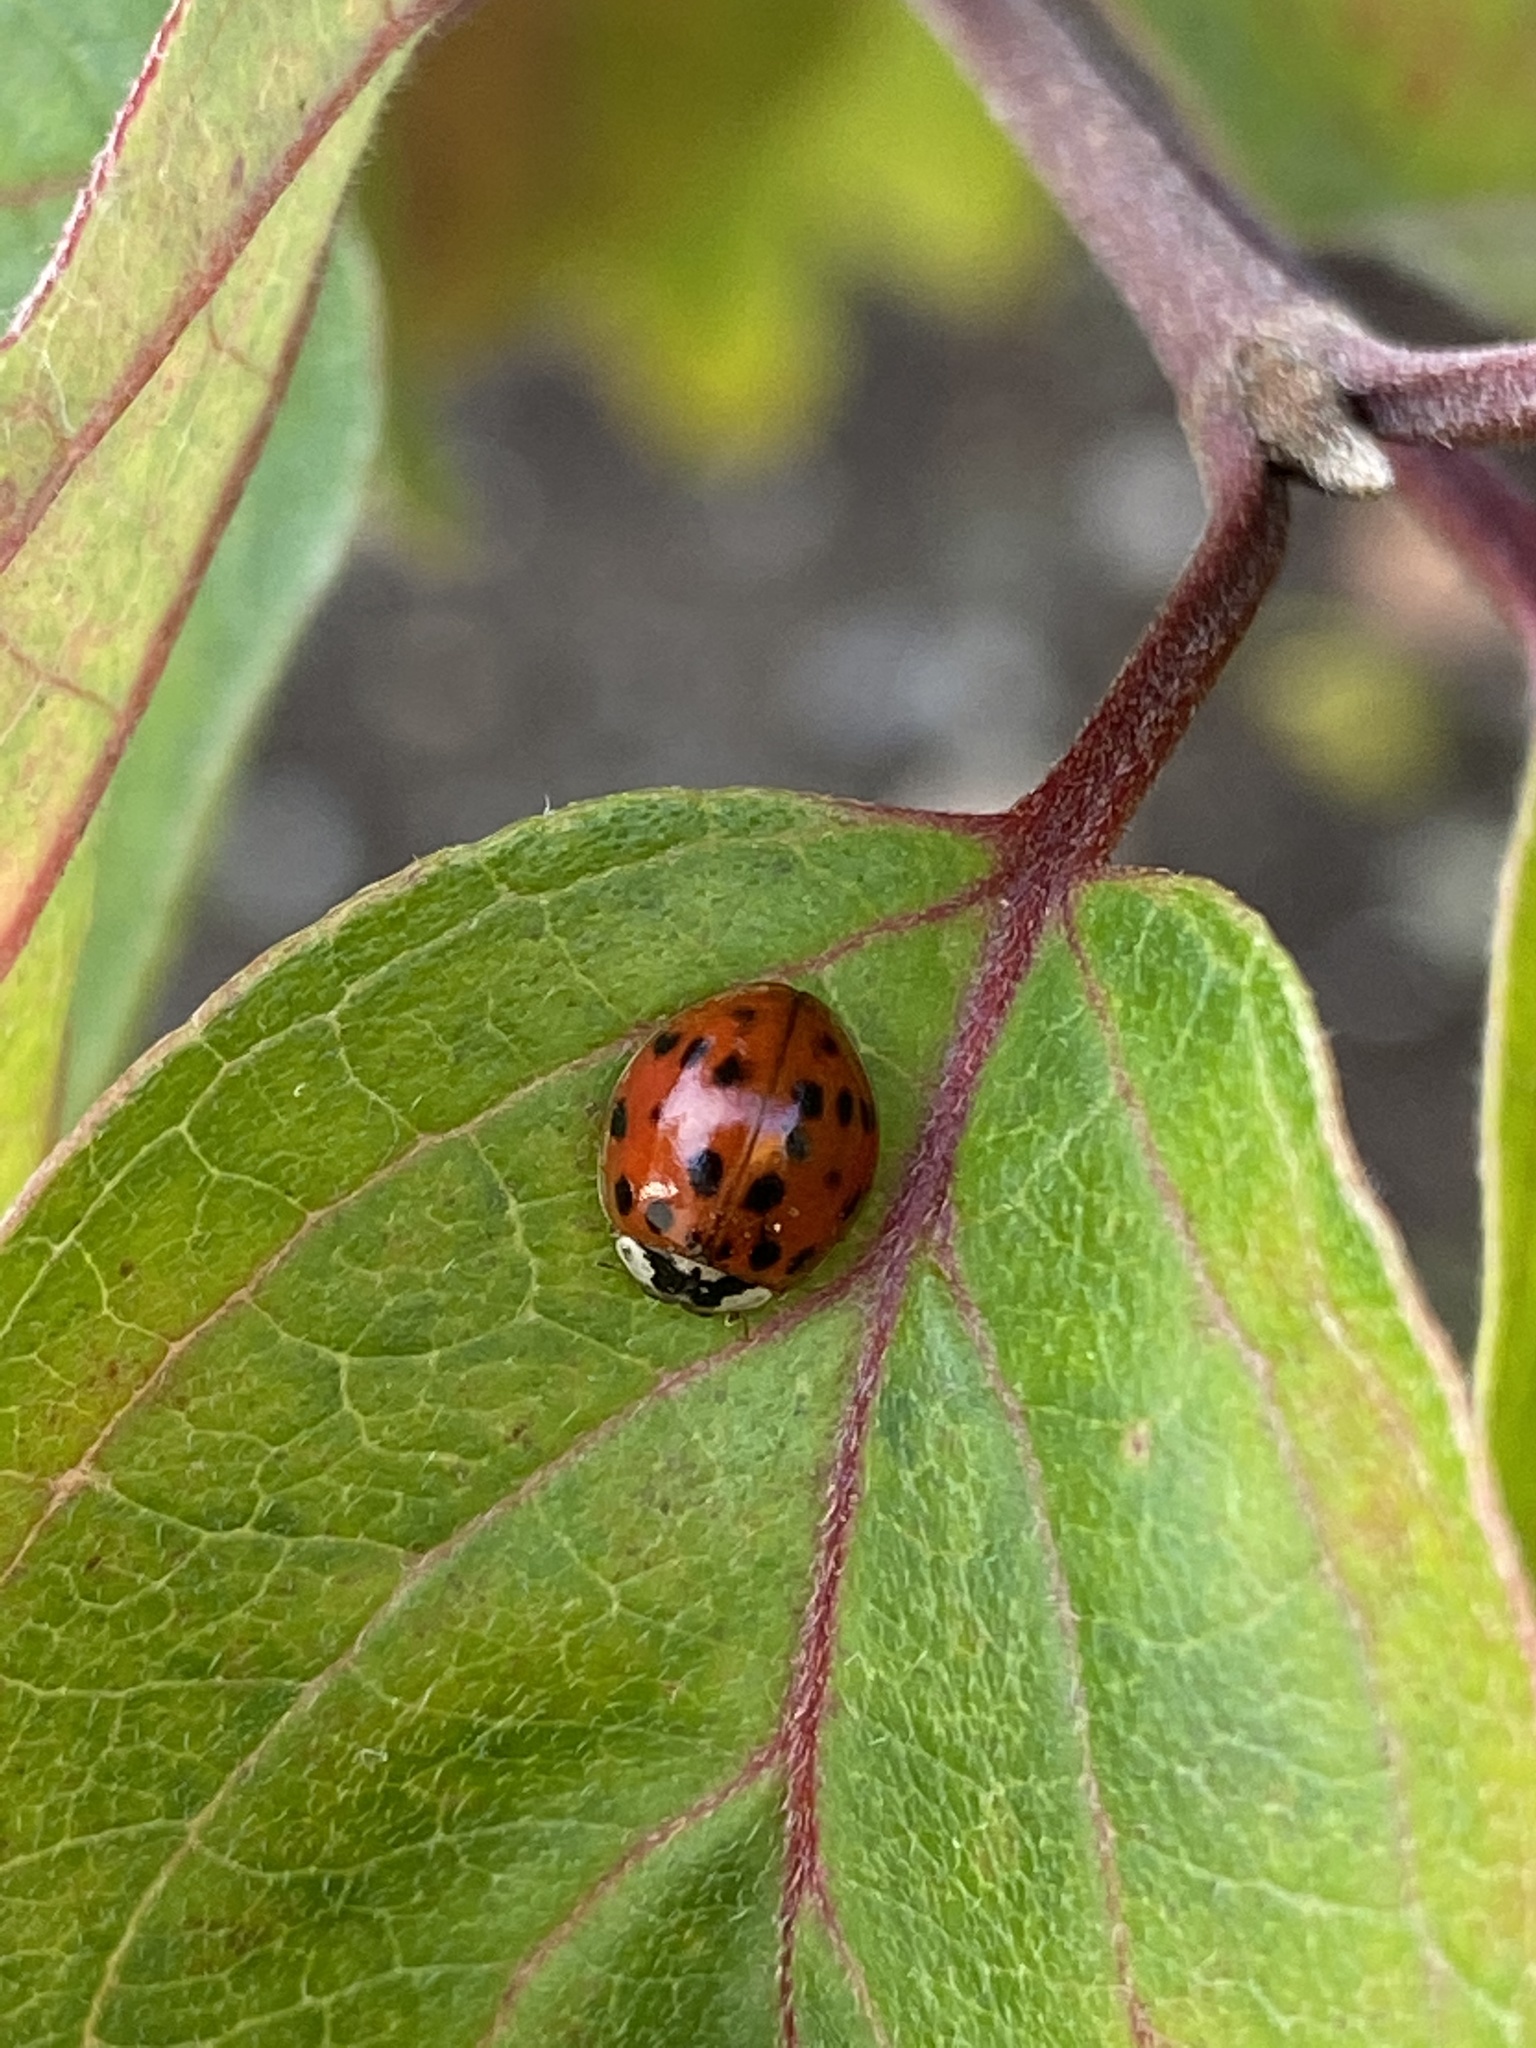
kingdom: Animalia
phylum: Arthropoda
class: Insecta
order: Coleoptera
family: Coccinellidae
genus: Harmonia
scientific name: Harmonia axyridis
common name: Harlequin ladybird
